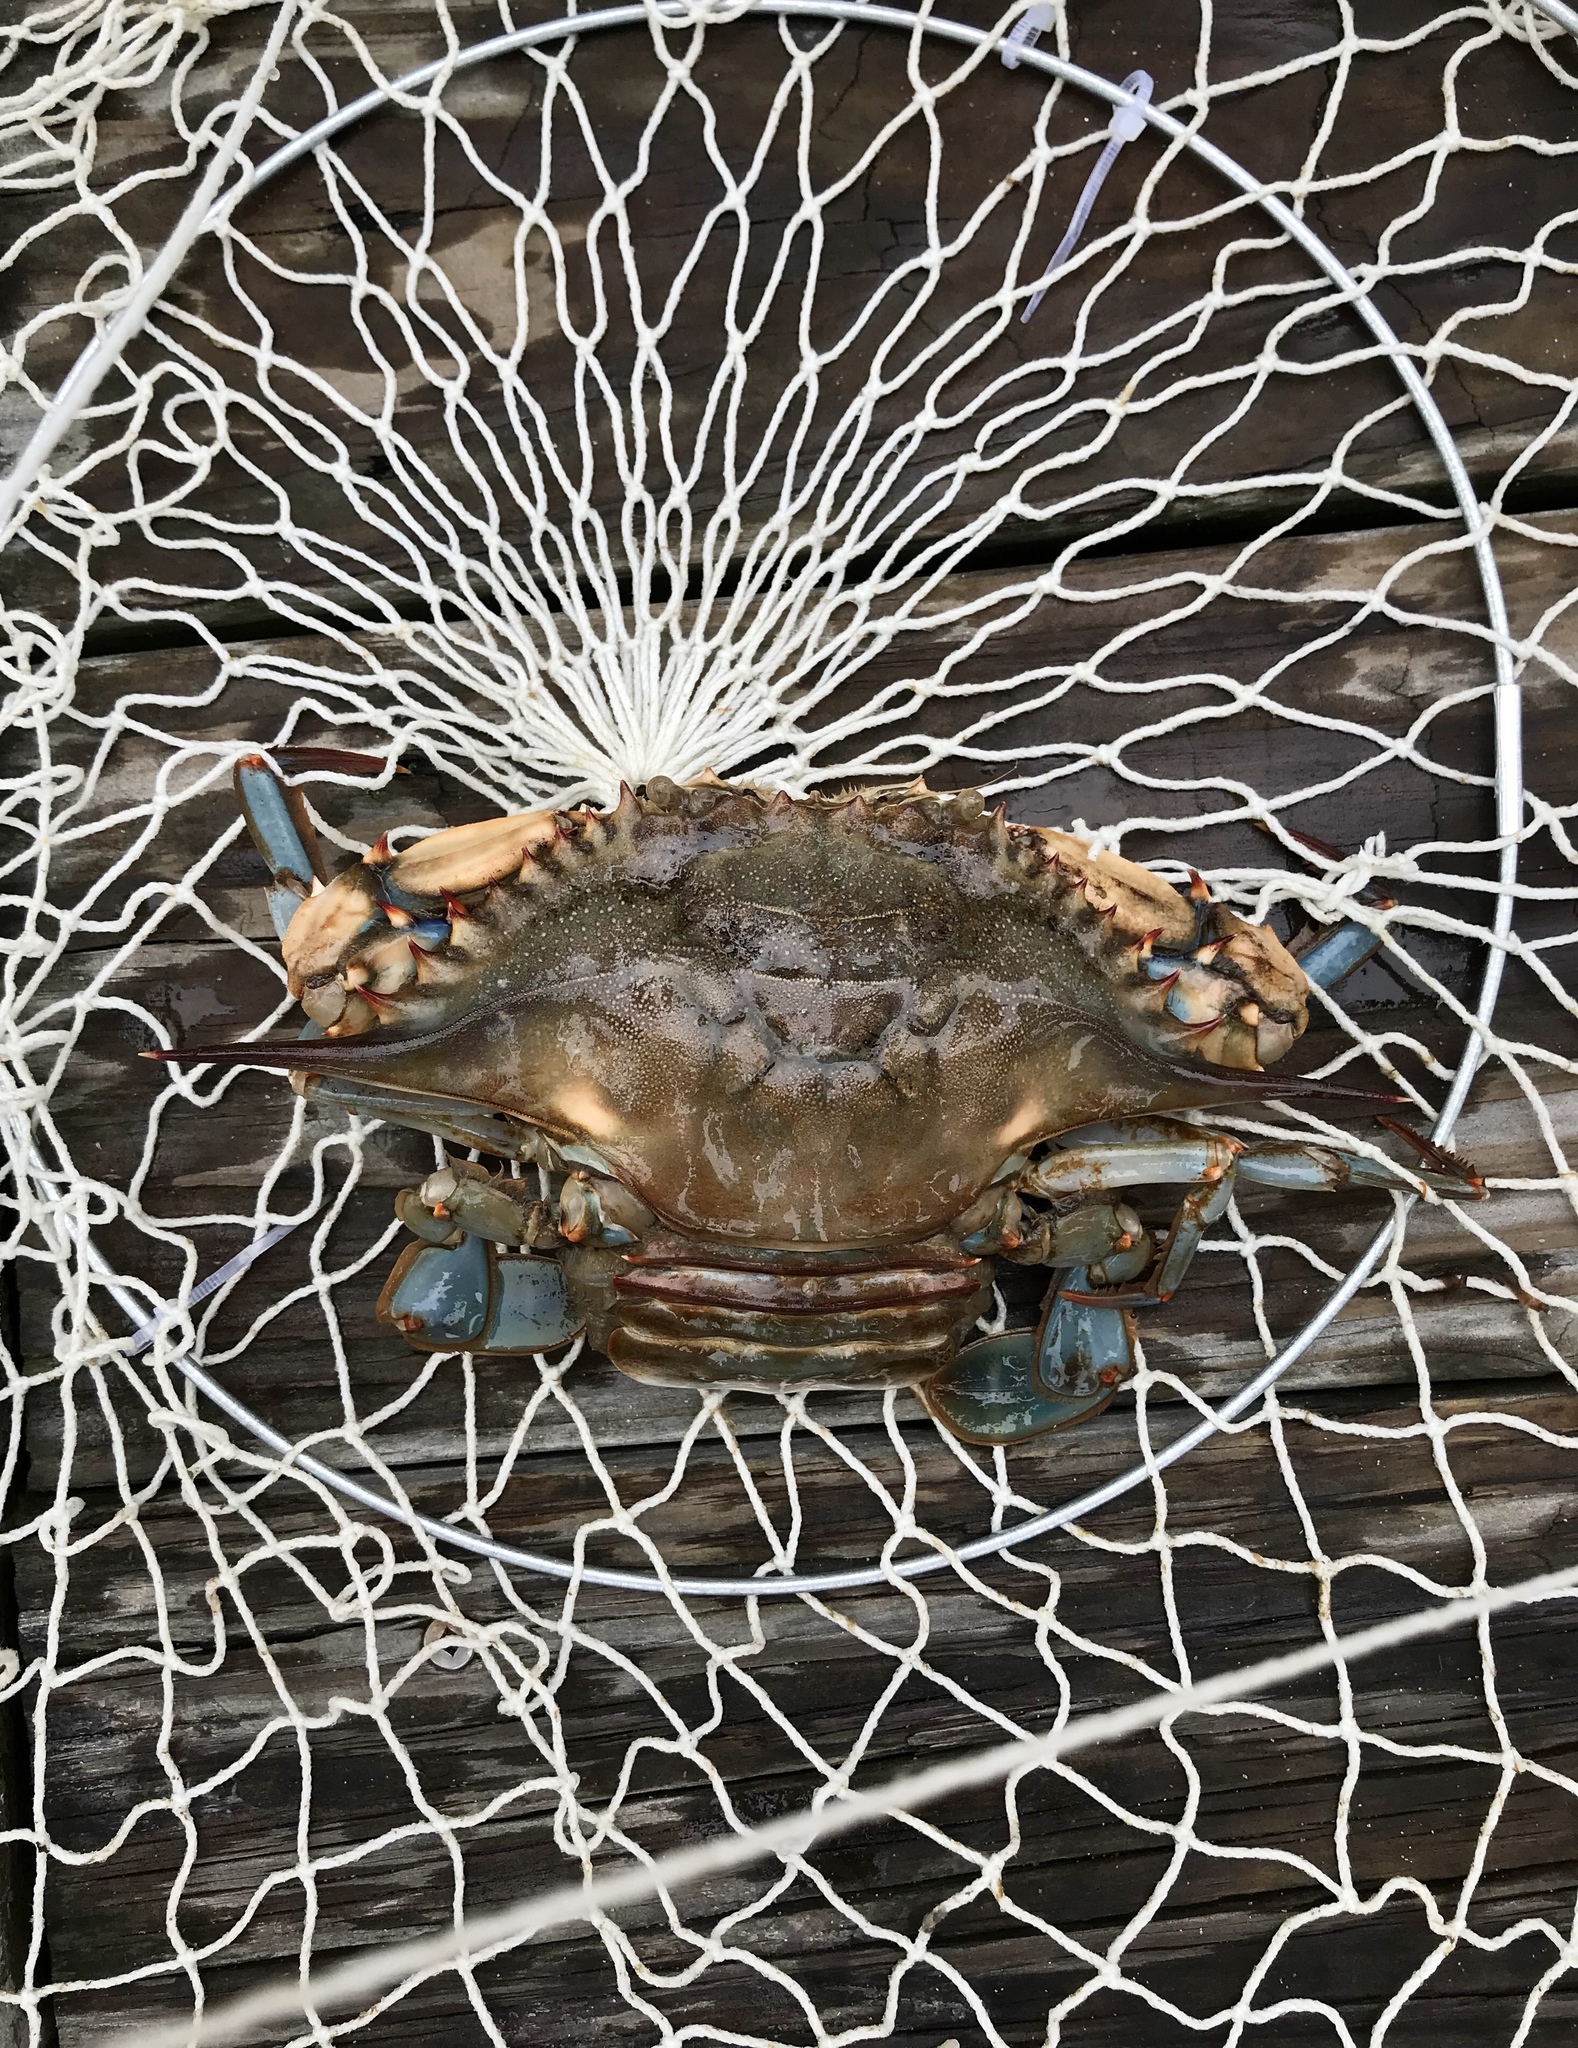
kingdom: Animalia
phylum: Arthropoda
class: Malacostraca
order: Decapoda
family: Portunidae
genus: Callinectes
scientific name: Callinectes sapidus
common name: Blue crab
